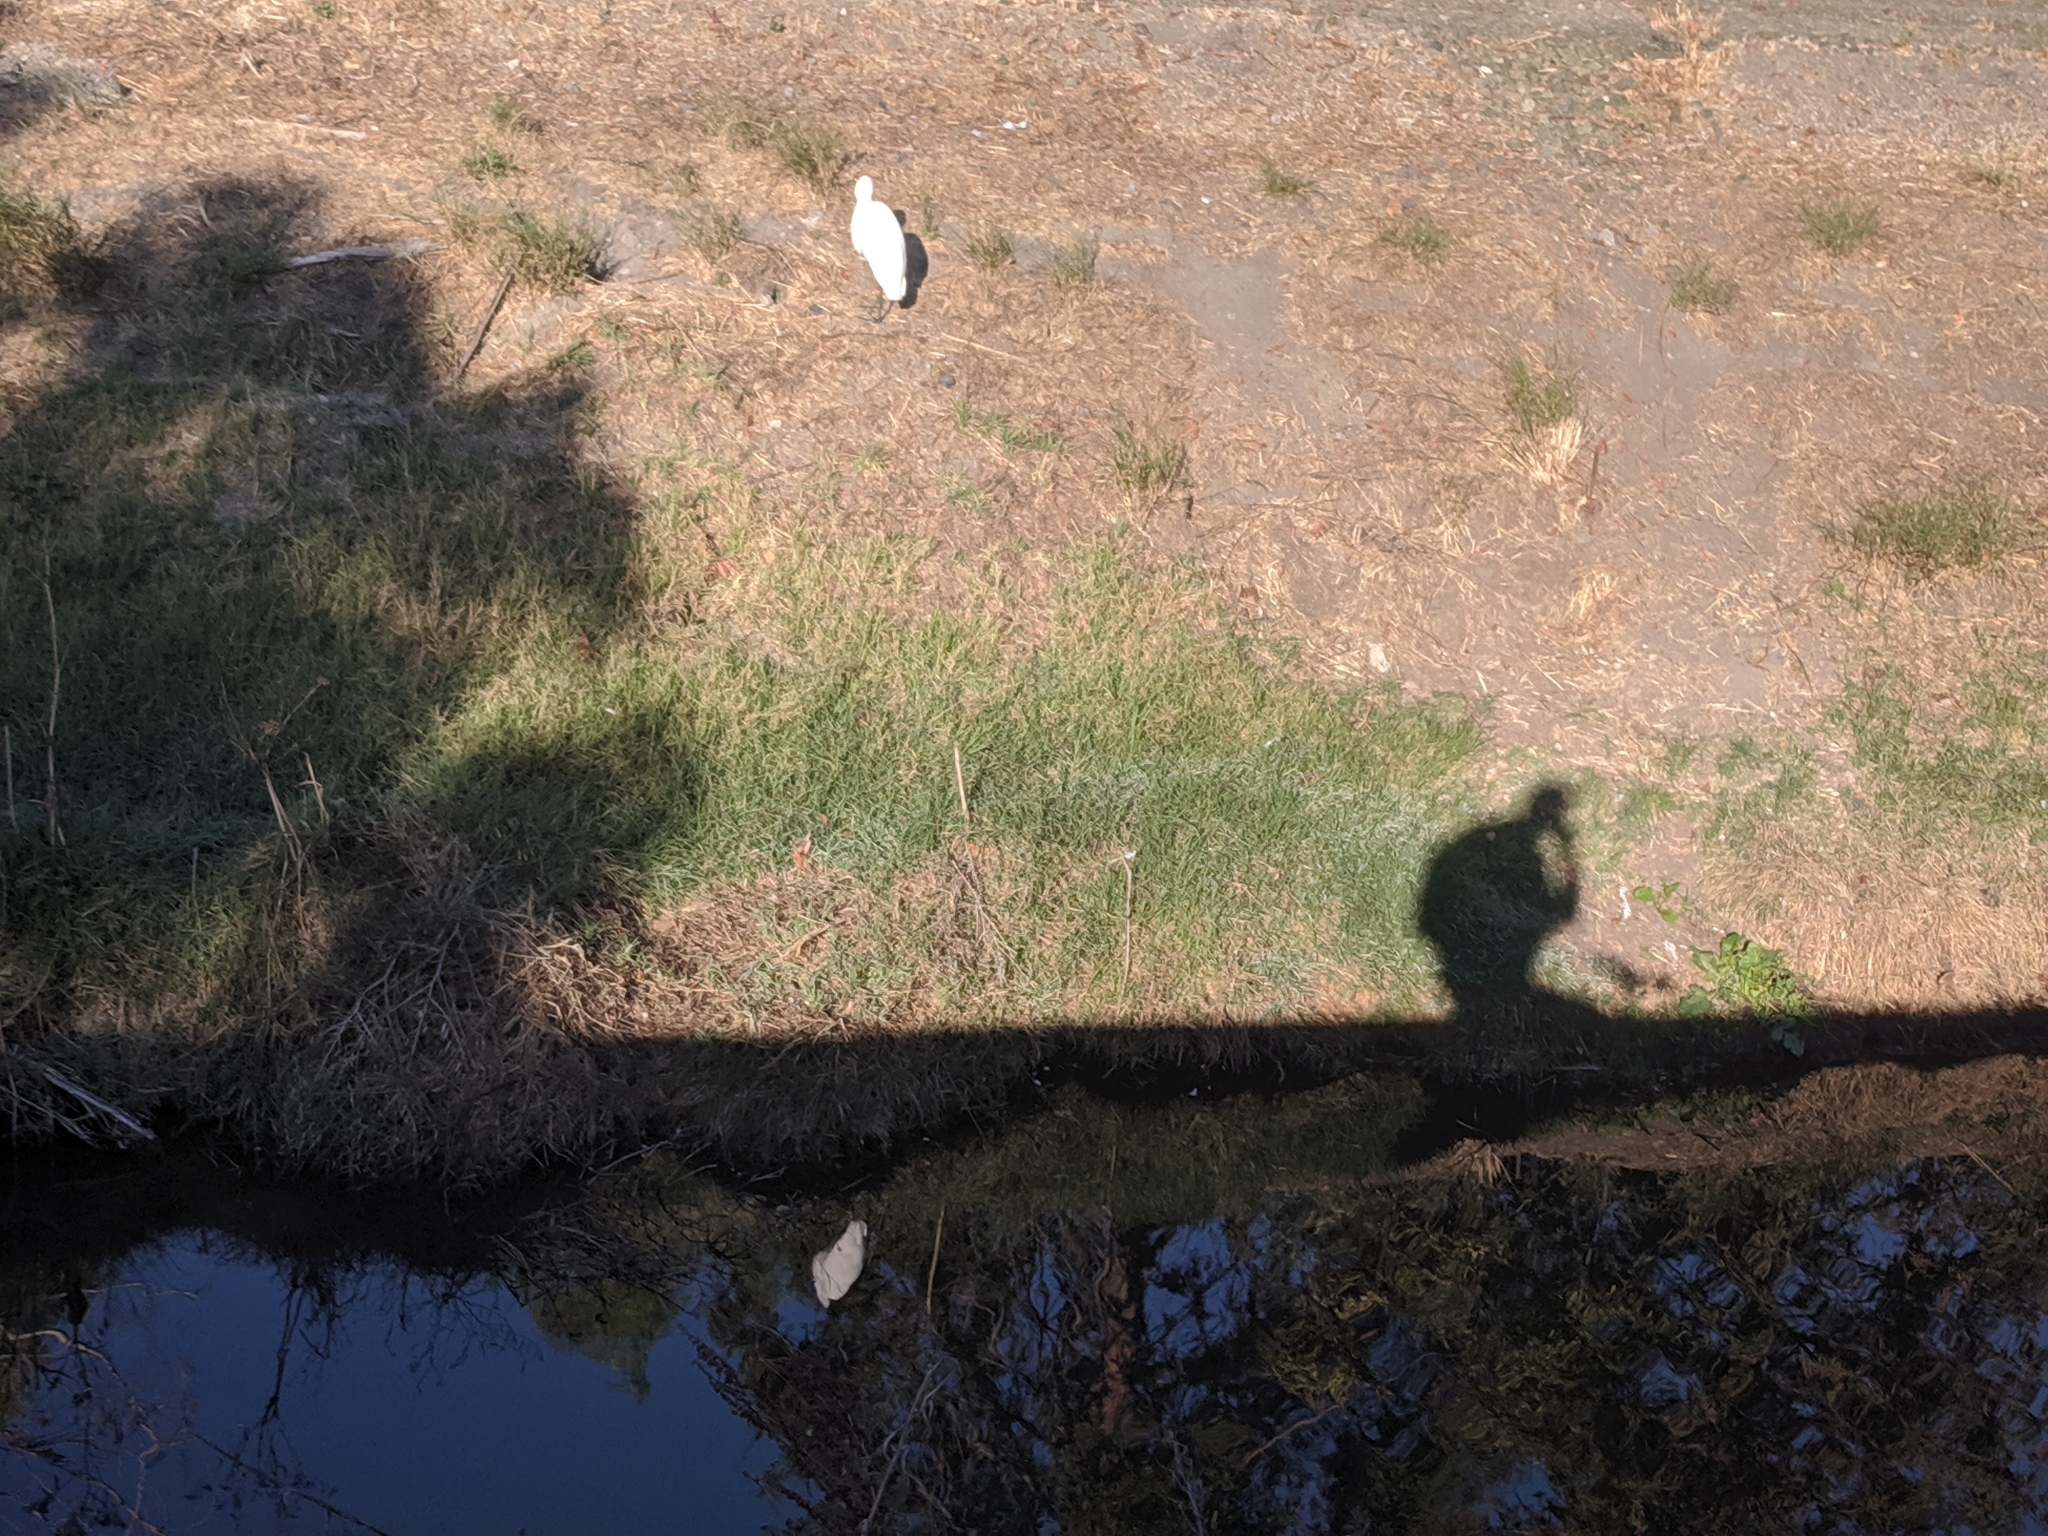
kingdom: Animalia
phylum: Chordata
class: Aves
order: Pelecaniformes
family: Ardeidae
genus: Ardea
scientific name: Ardea alba
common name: Great egret
